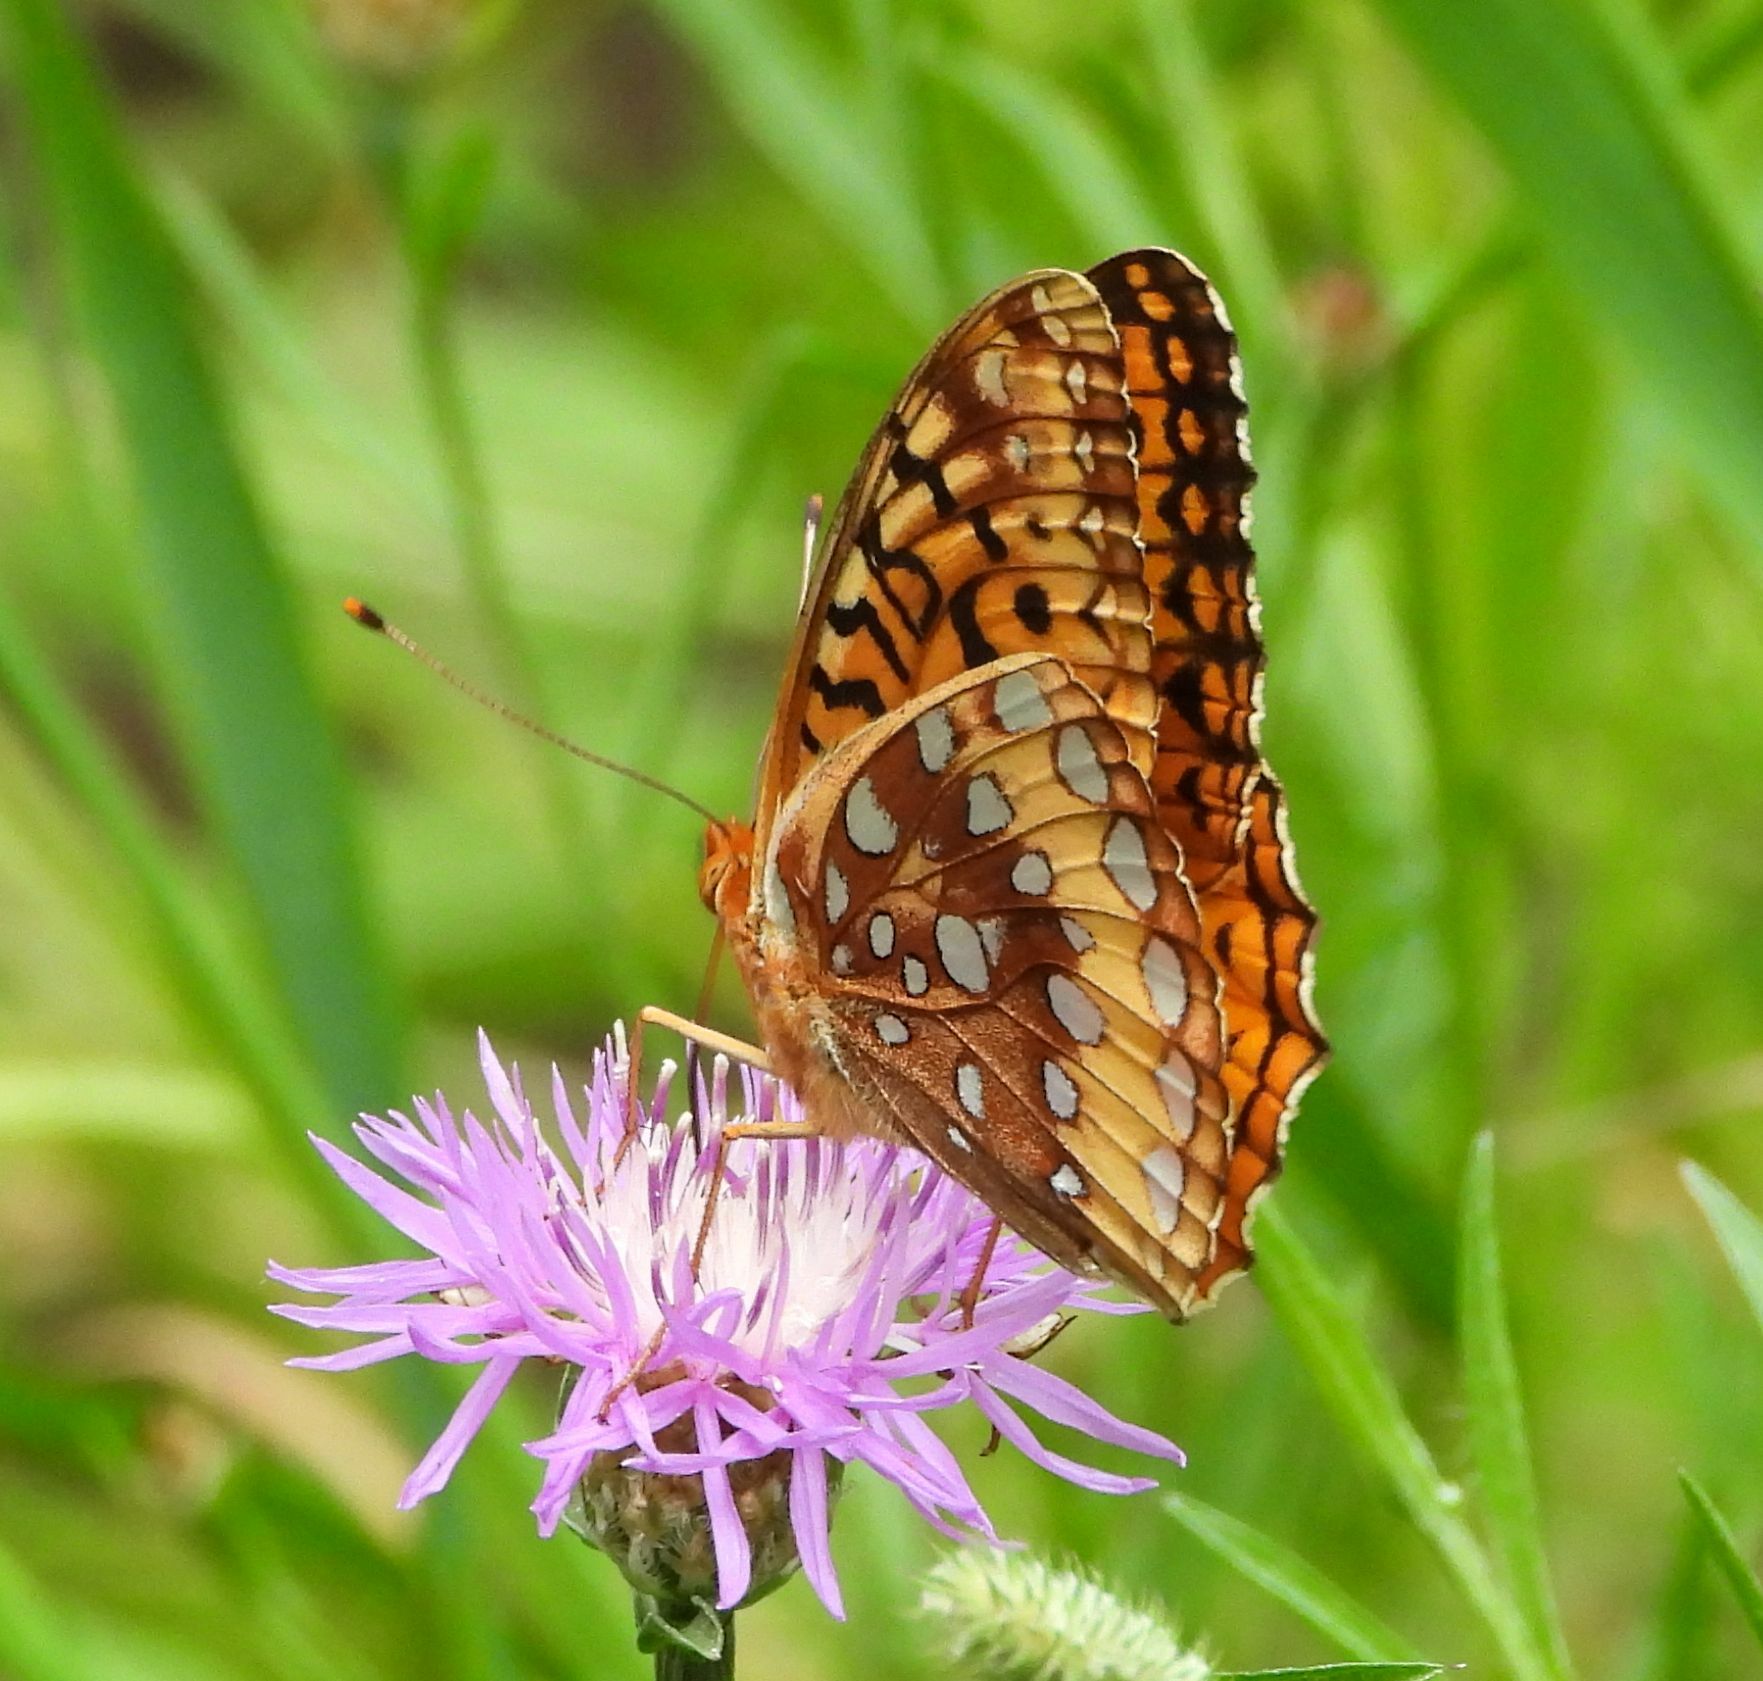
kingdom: Animalia
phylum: Arthropoda
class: Insecta
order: Lepidoptera
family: Nymphalidae
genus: Speyeria
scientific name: Speyeria cybele
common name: Great spangled fritillary
